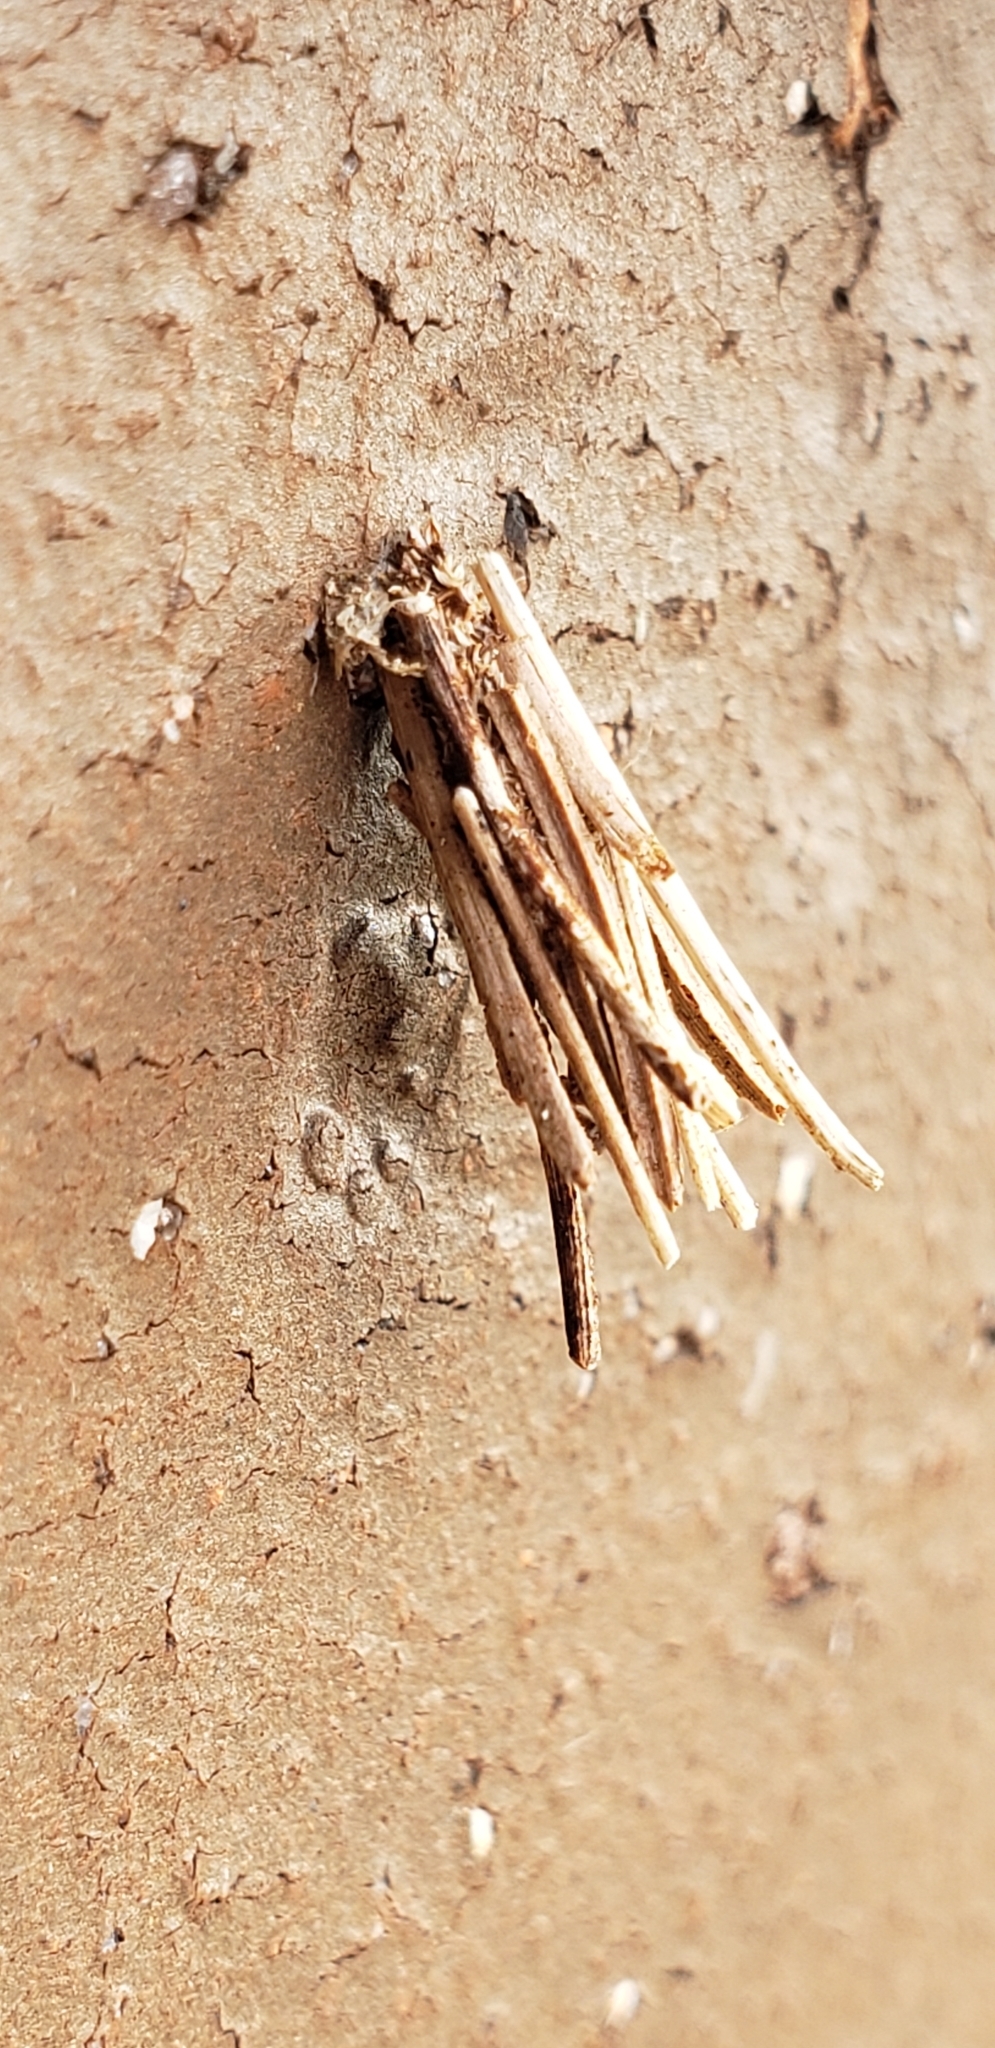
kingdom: Animalia
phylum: Arthropoda
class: Insecta
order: Lepidoptera
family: Psychidae
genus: Psyche
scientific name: Psyche casta
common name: Common sweep
